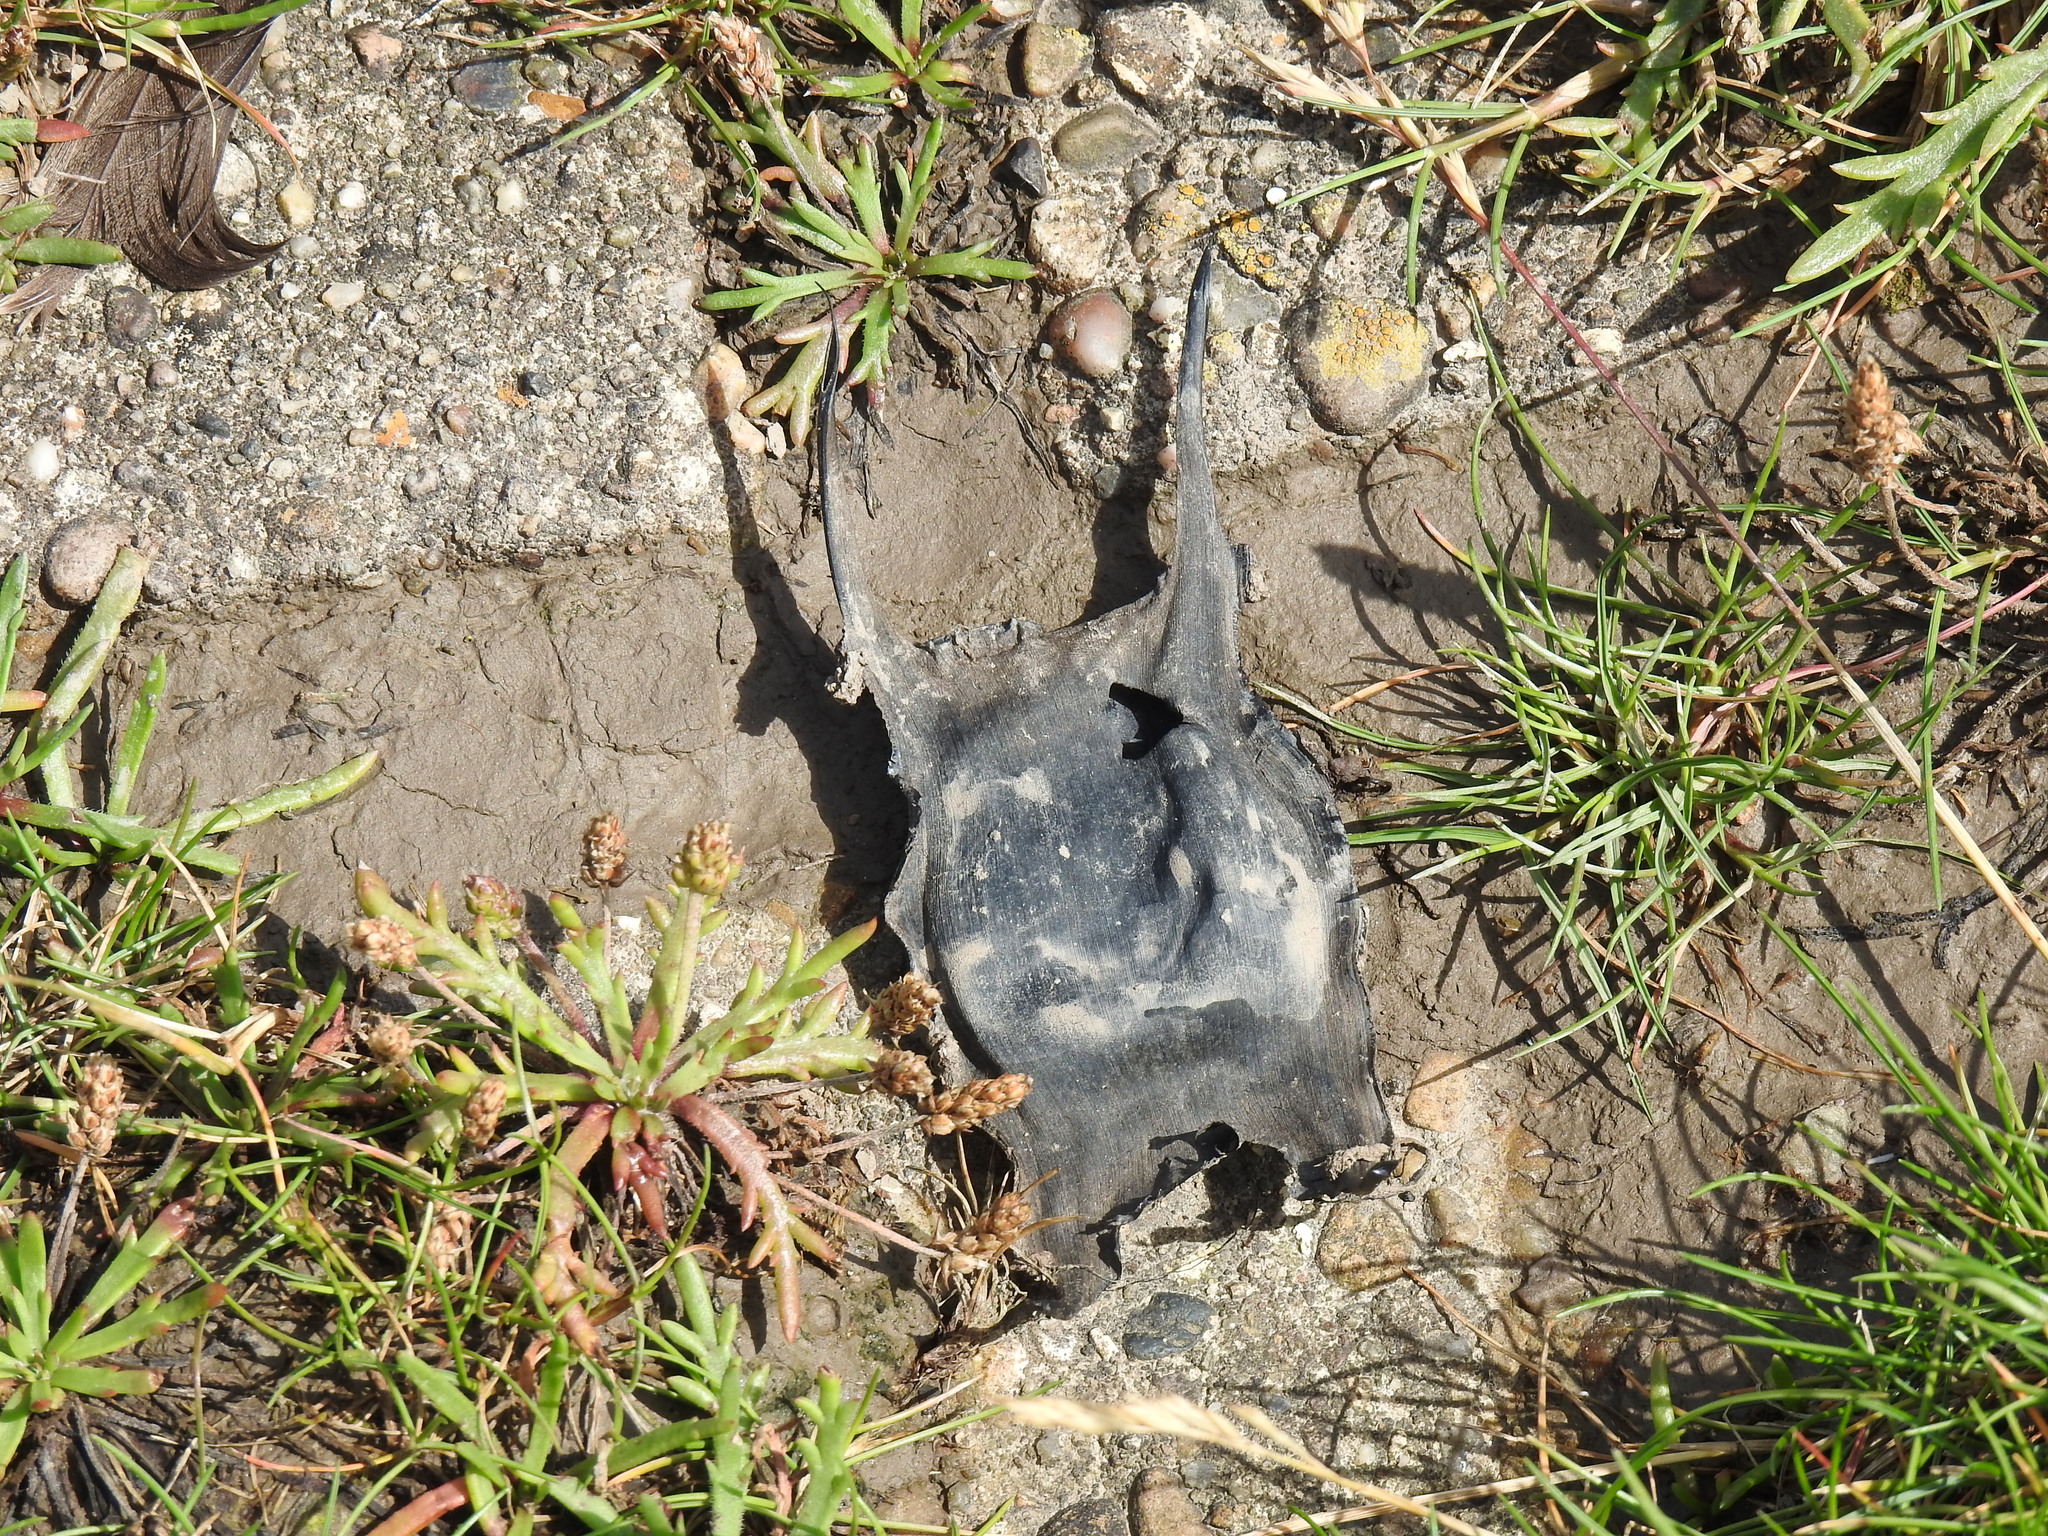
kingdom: Animalia
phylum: Chordata
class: Elasmobranchii
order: Rajiformes
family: Rajidae
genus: Raja
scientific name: Raja clavata
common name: Thornback ray
